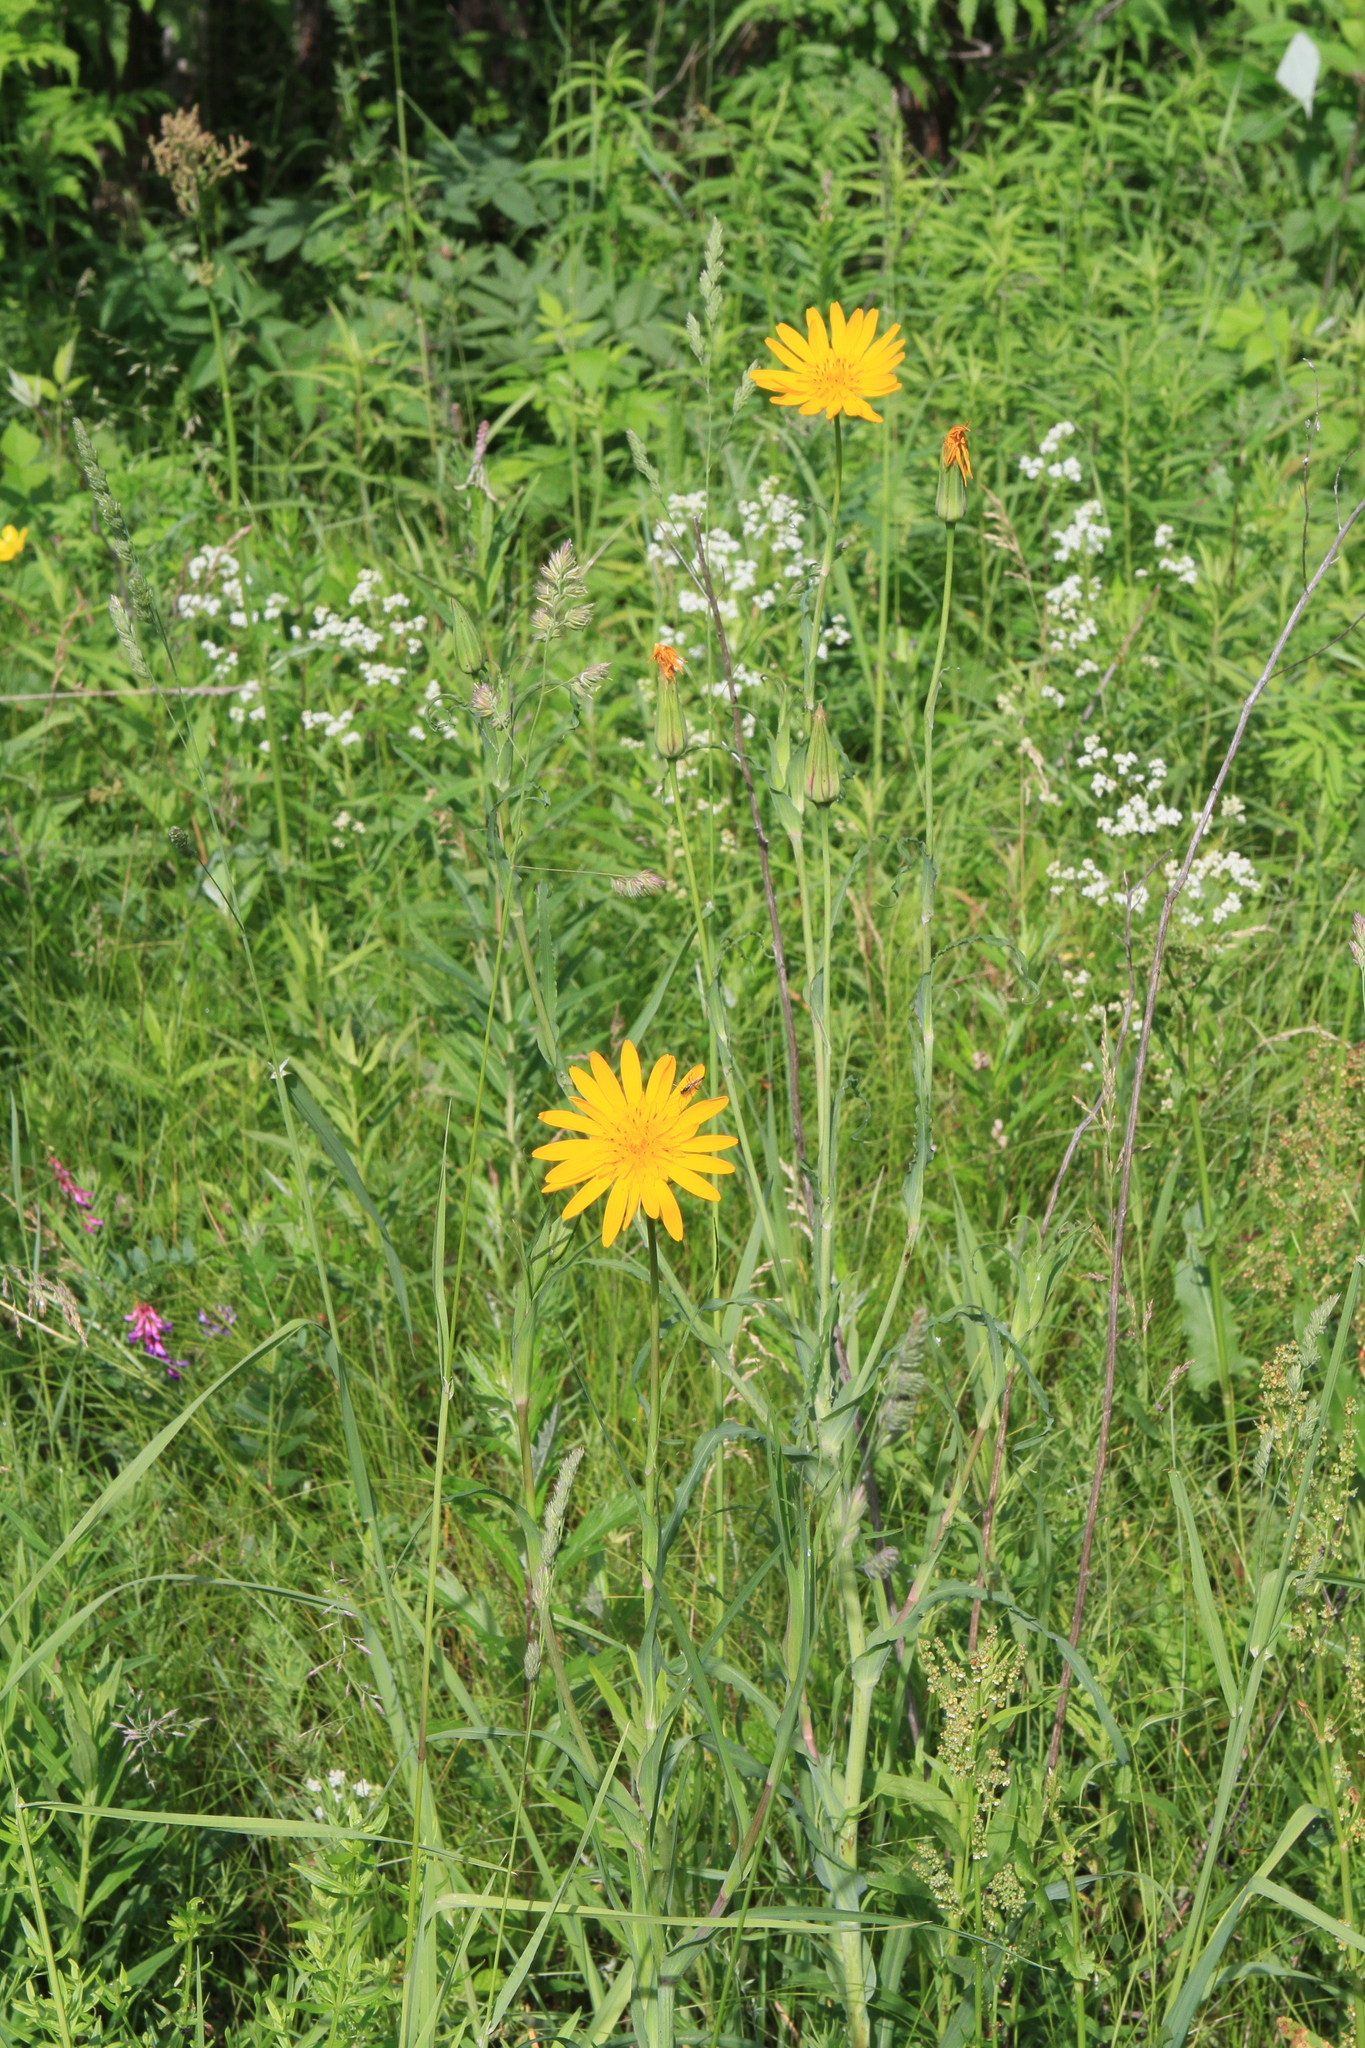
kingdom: Plantae
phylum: Tracheophyta
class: Magnoliopsida
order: Asterales
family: Asteraceae
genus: Tragopogon
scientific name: Tragopogon orientalis
